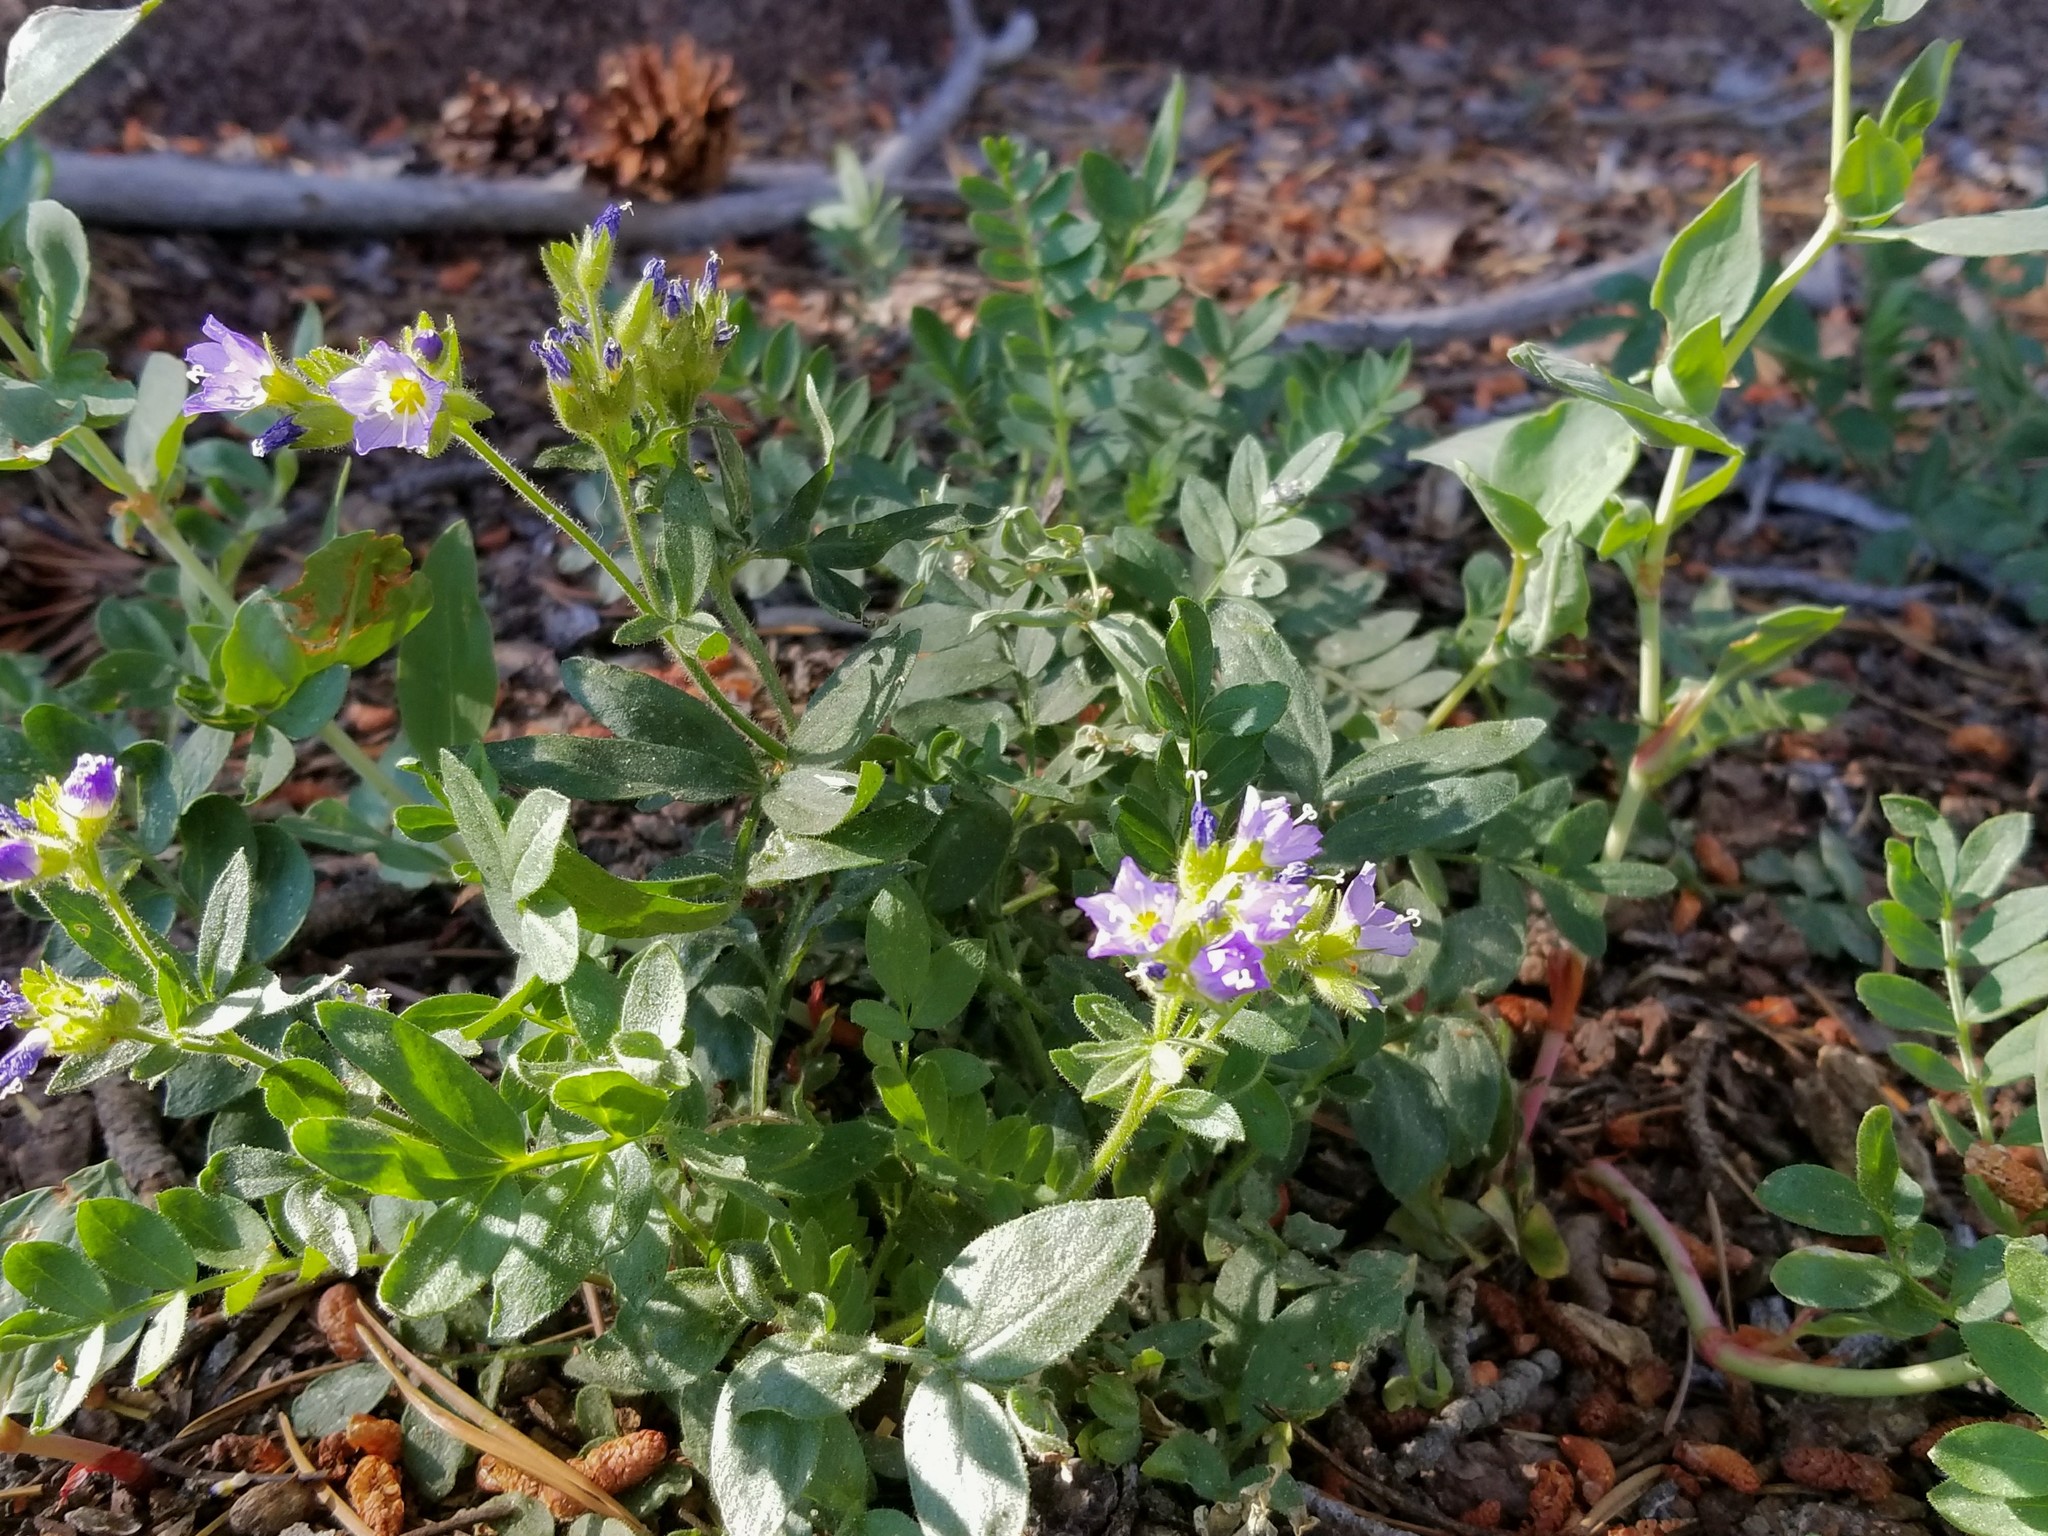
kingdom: Plantae
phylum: Tracheophyta
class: Magnoliopsida
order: Ericales
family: Polemoniaceae
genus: Polemonium
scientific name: Polemonium californicum
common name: California jacob's ladder
